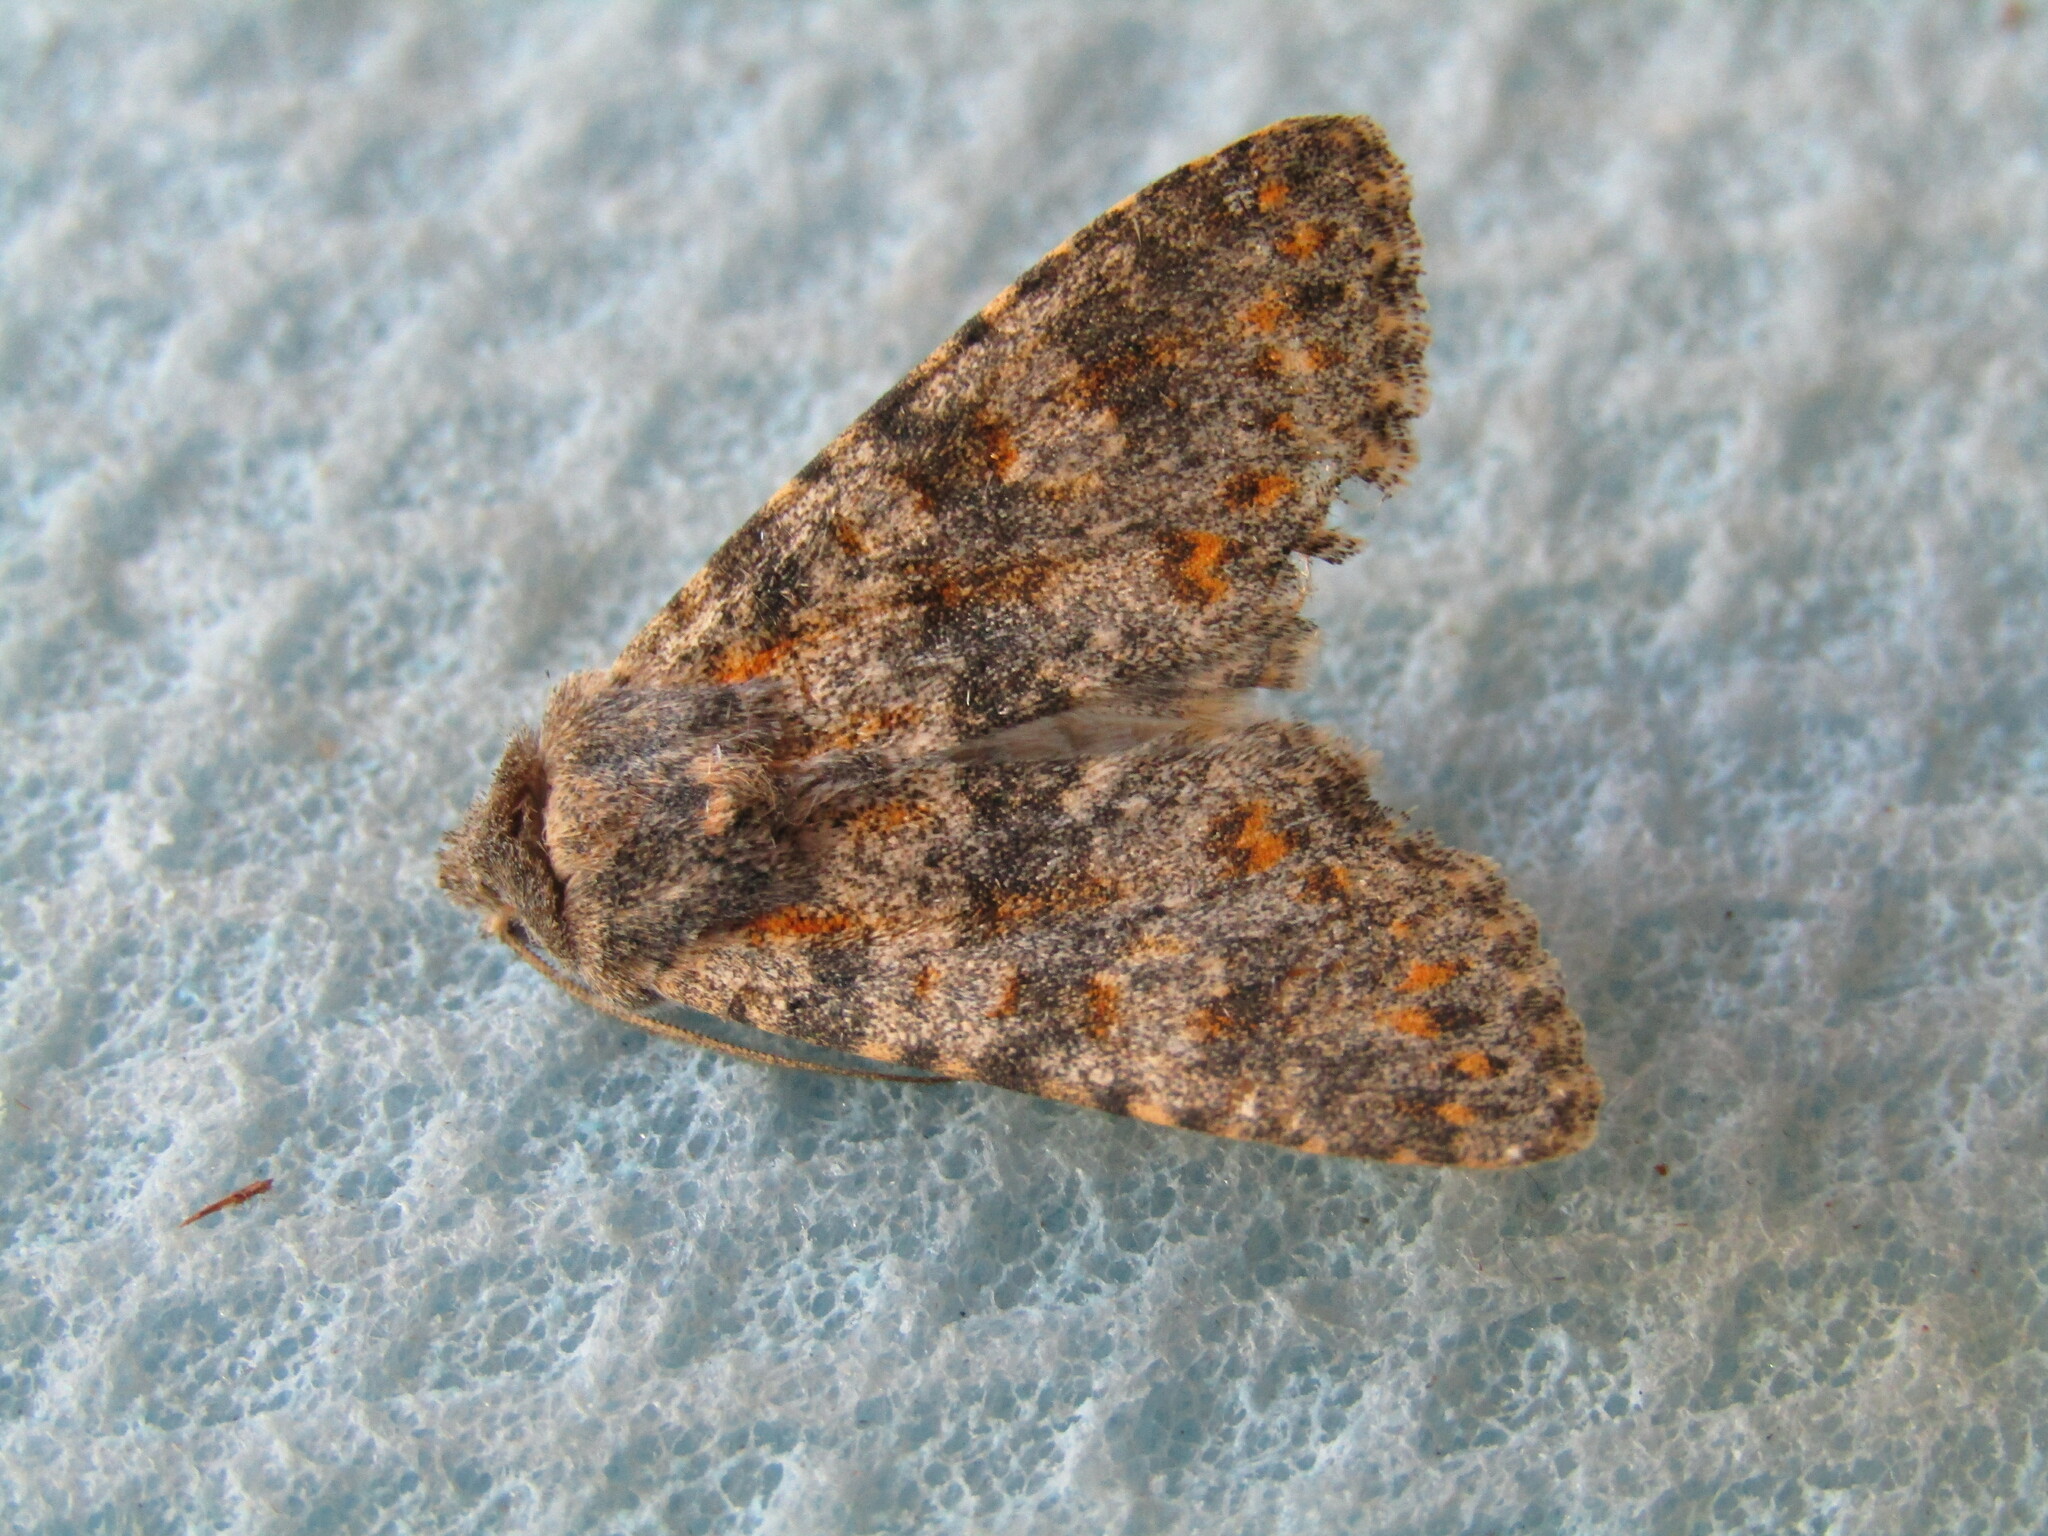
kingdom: Animalia
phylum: Arthropoda
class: Insecta
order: Lepidoptera
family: Noctuidae
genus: Polymixis
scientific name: Polymixis rufocincta
